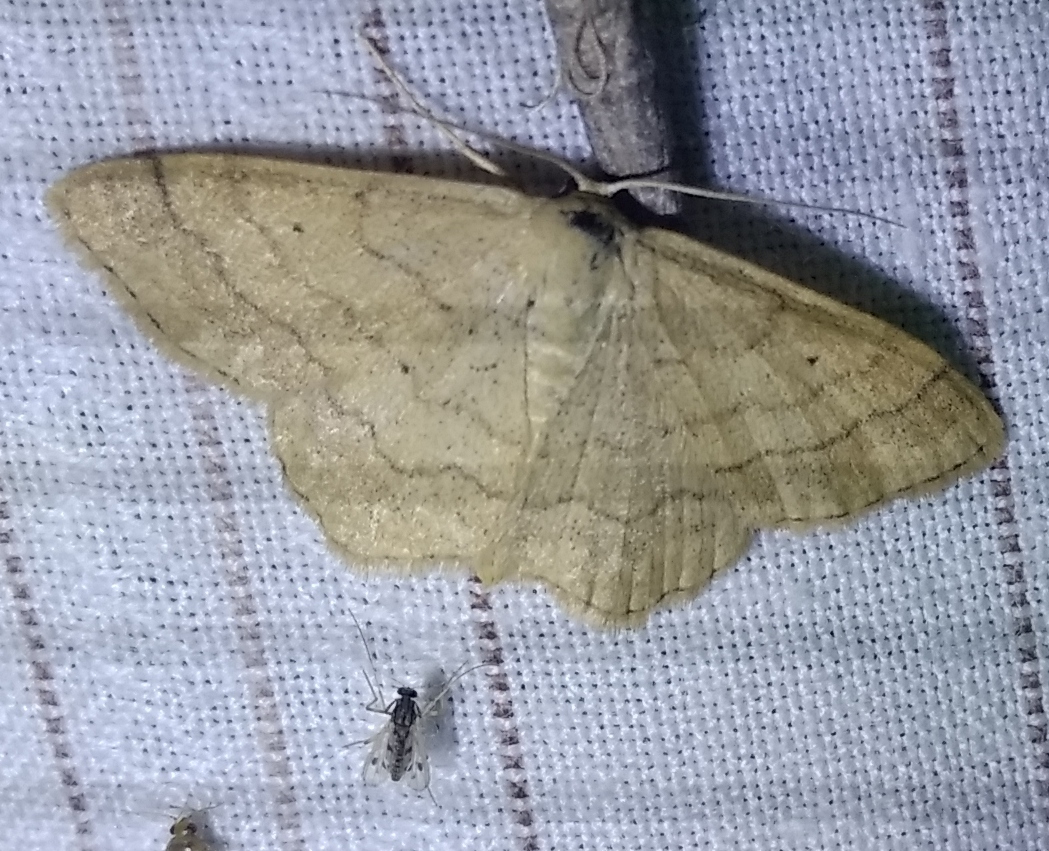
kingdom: Animalia
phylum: Arthropoda
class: Insecta
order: Lepidoptera
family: Geometridae
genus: Scopula
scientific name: Scopula rubiginata
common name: Tawny wave
